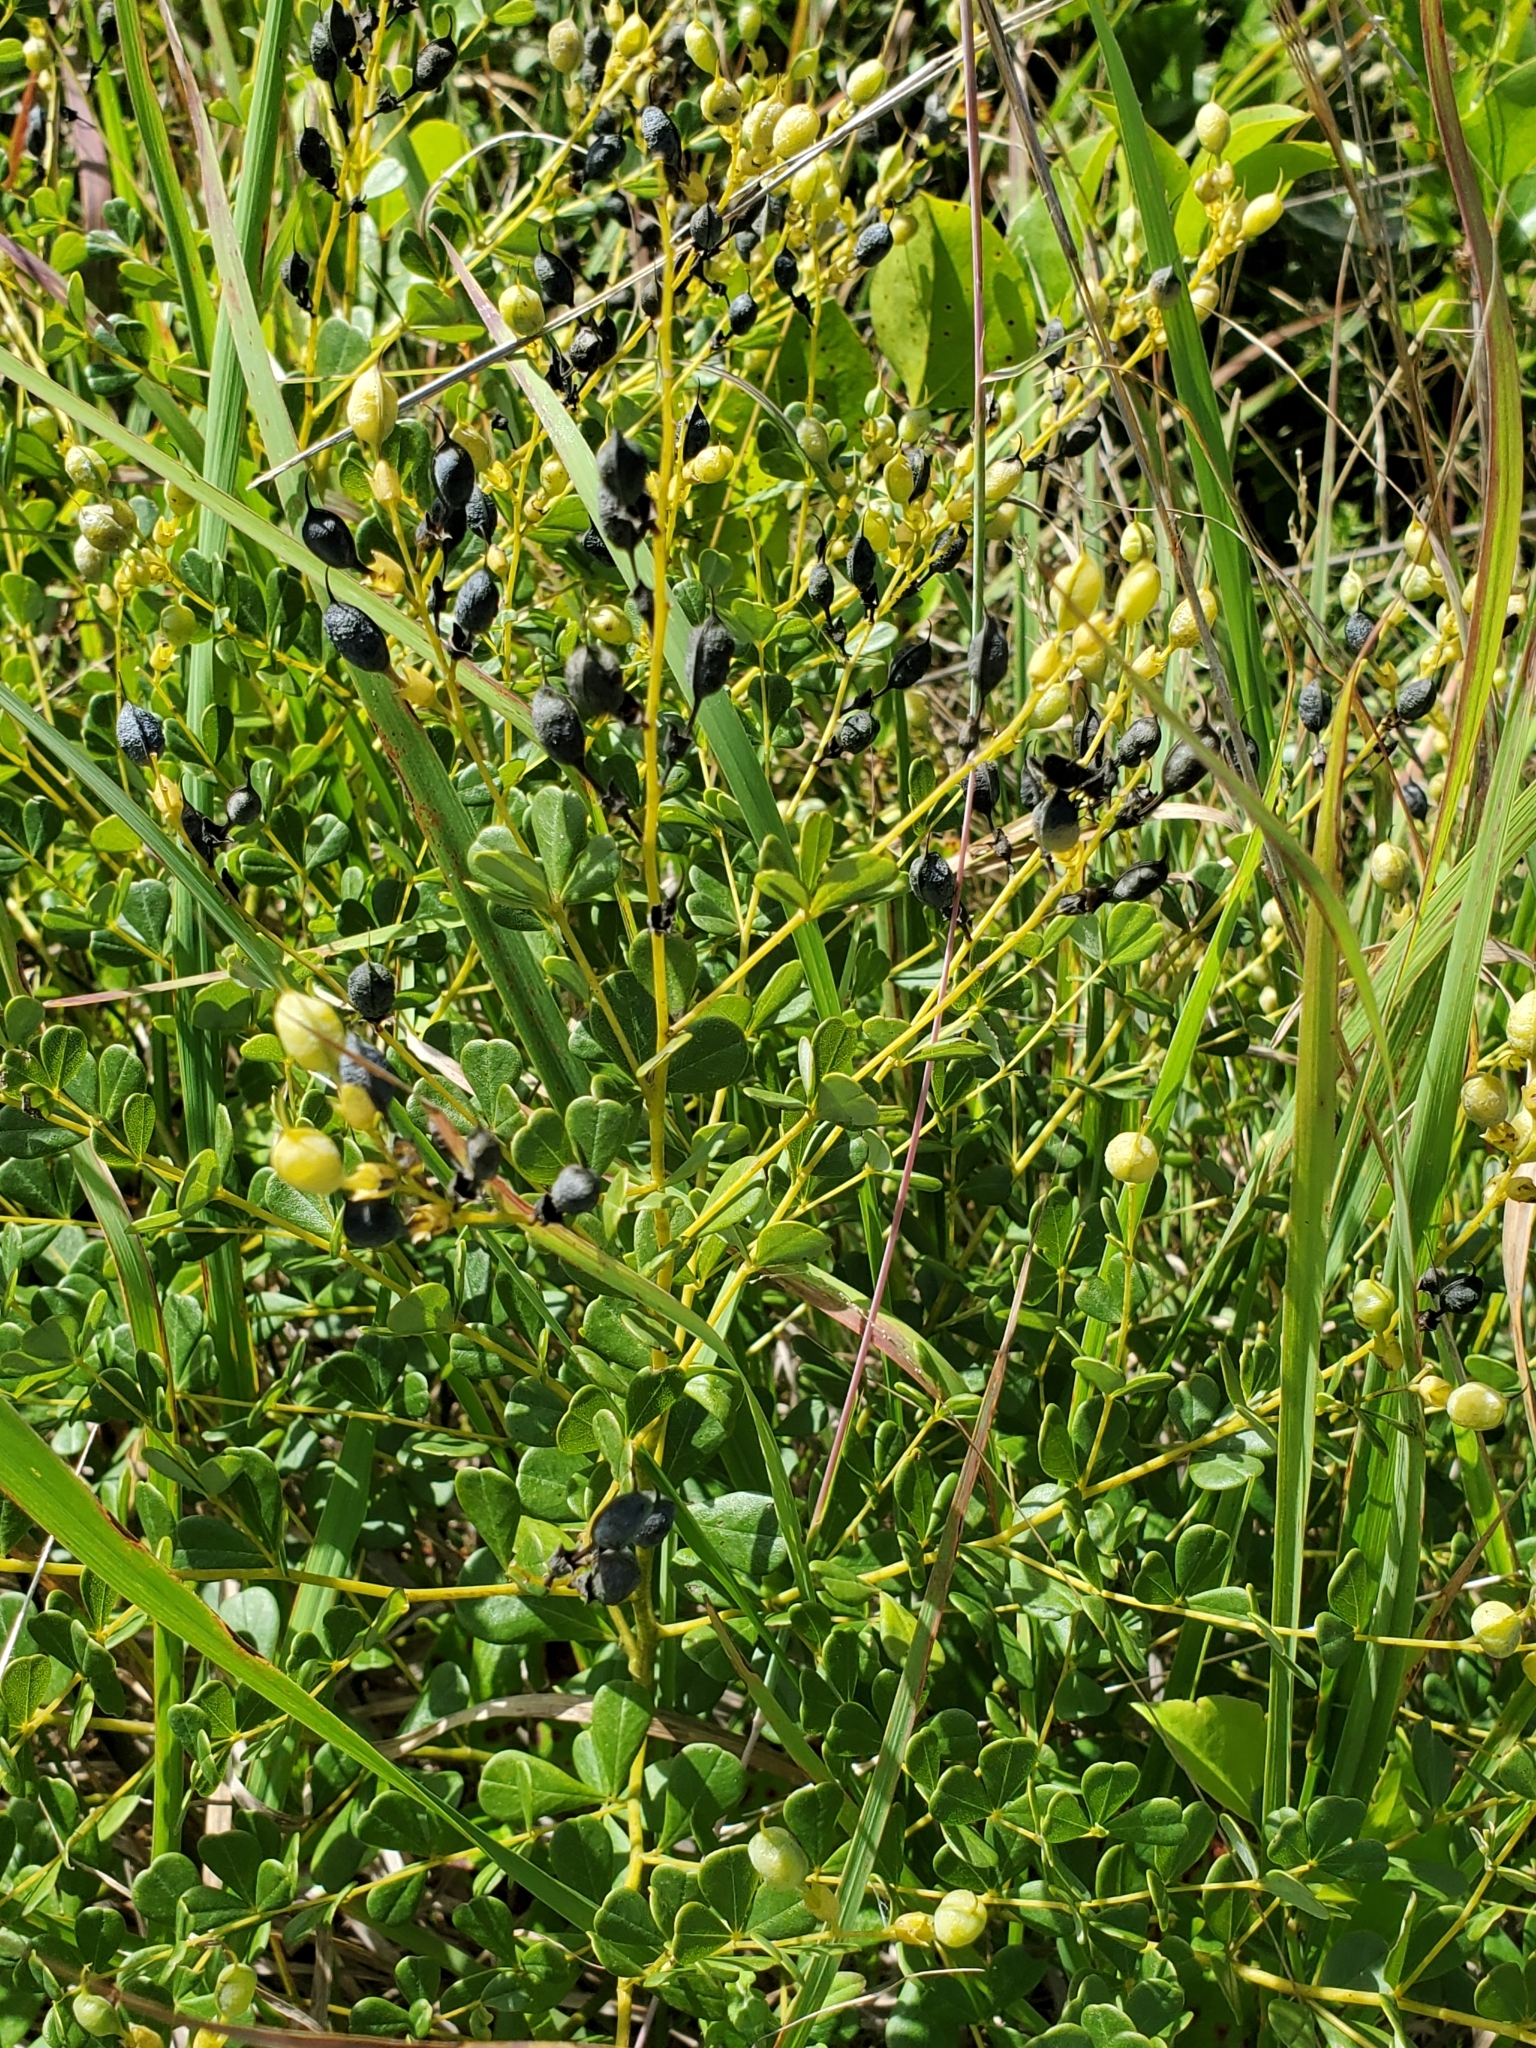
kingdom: Plantae
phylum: Tracheophyta
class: Magnoliopsida
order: Fabales
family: Fabaceae
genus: Baptisia
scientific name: Baptisia tinctoria
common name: Wild indigo
